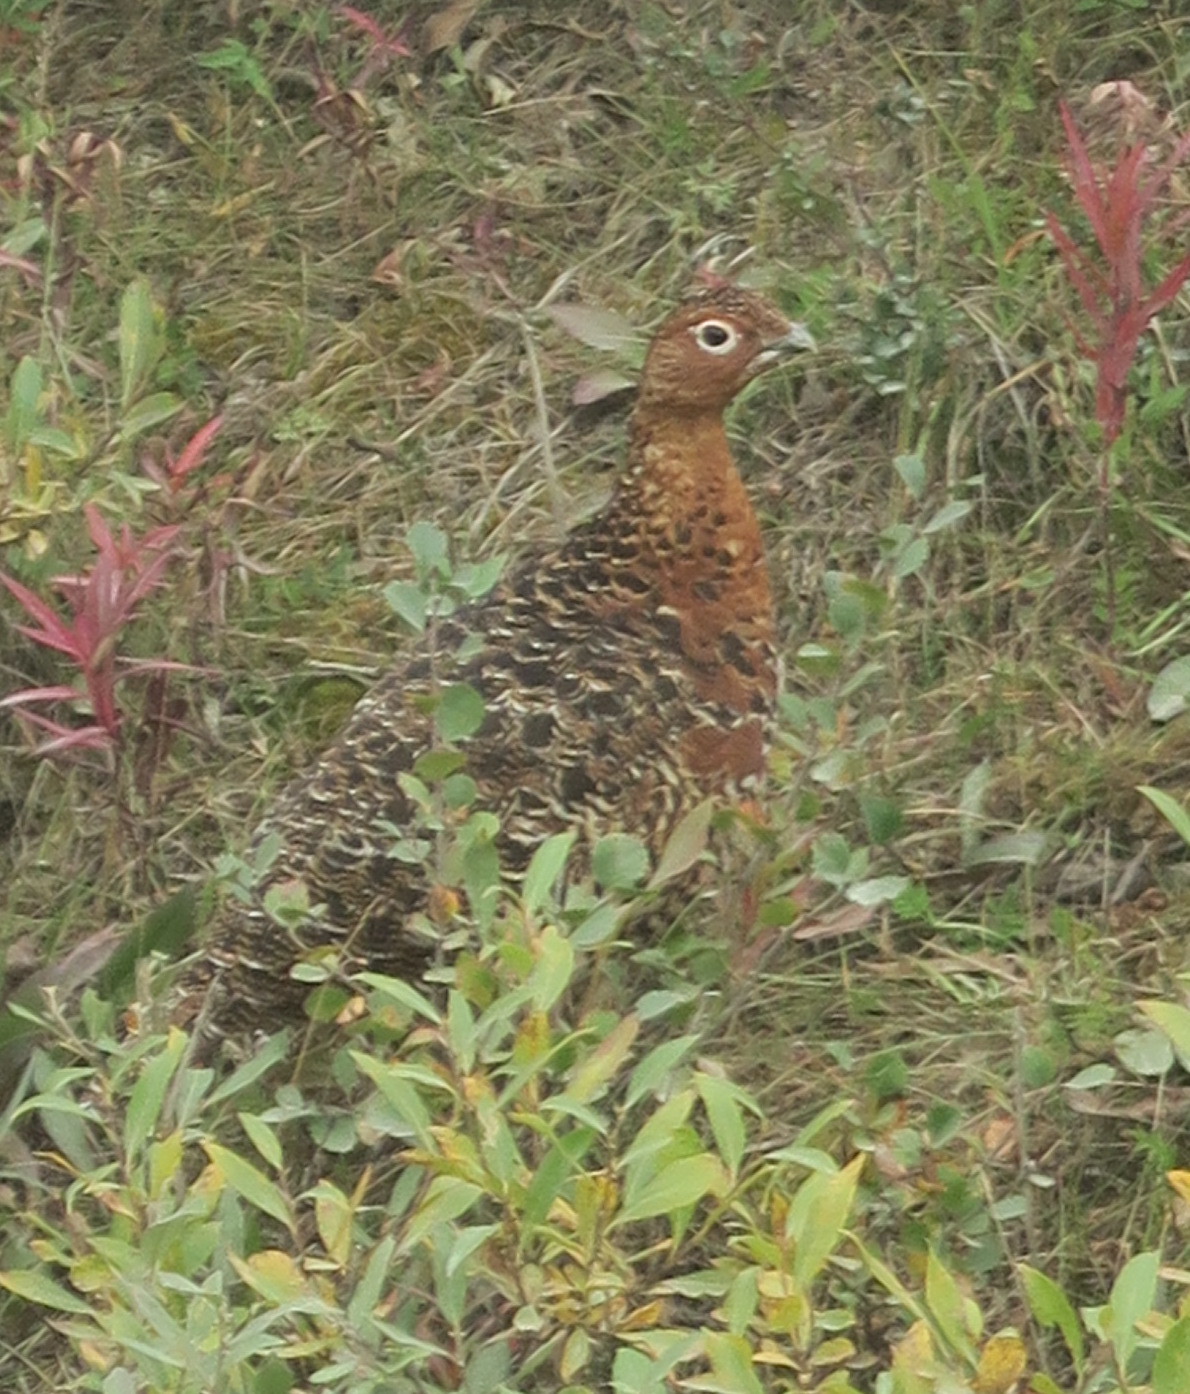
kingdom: Animalia
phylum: Chordata
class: Aves
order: Galliformes
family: Phasianidae
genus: Lagopus
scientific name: Lagopus lagopus
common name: Willow ptarmigan
